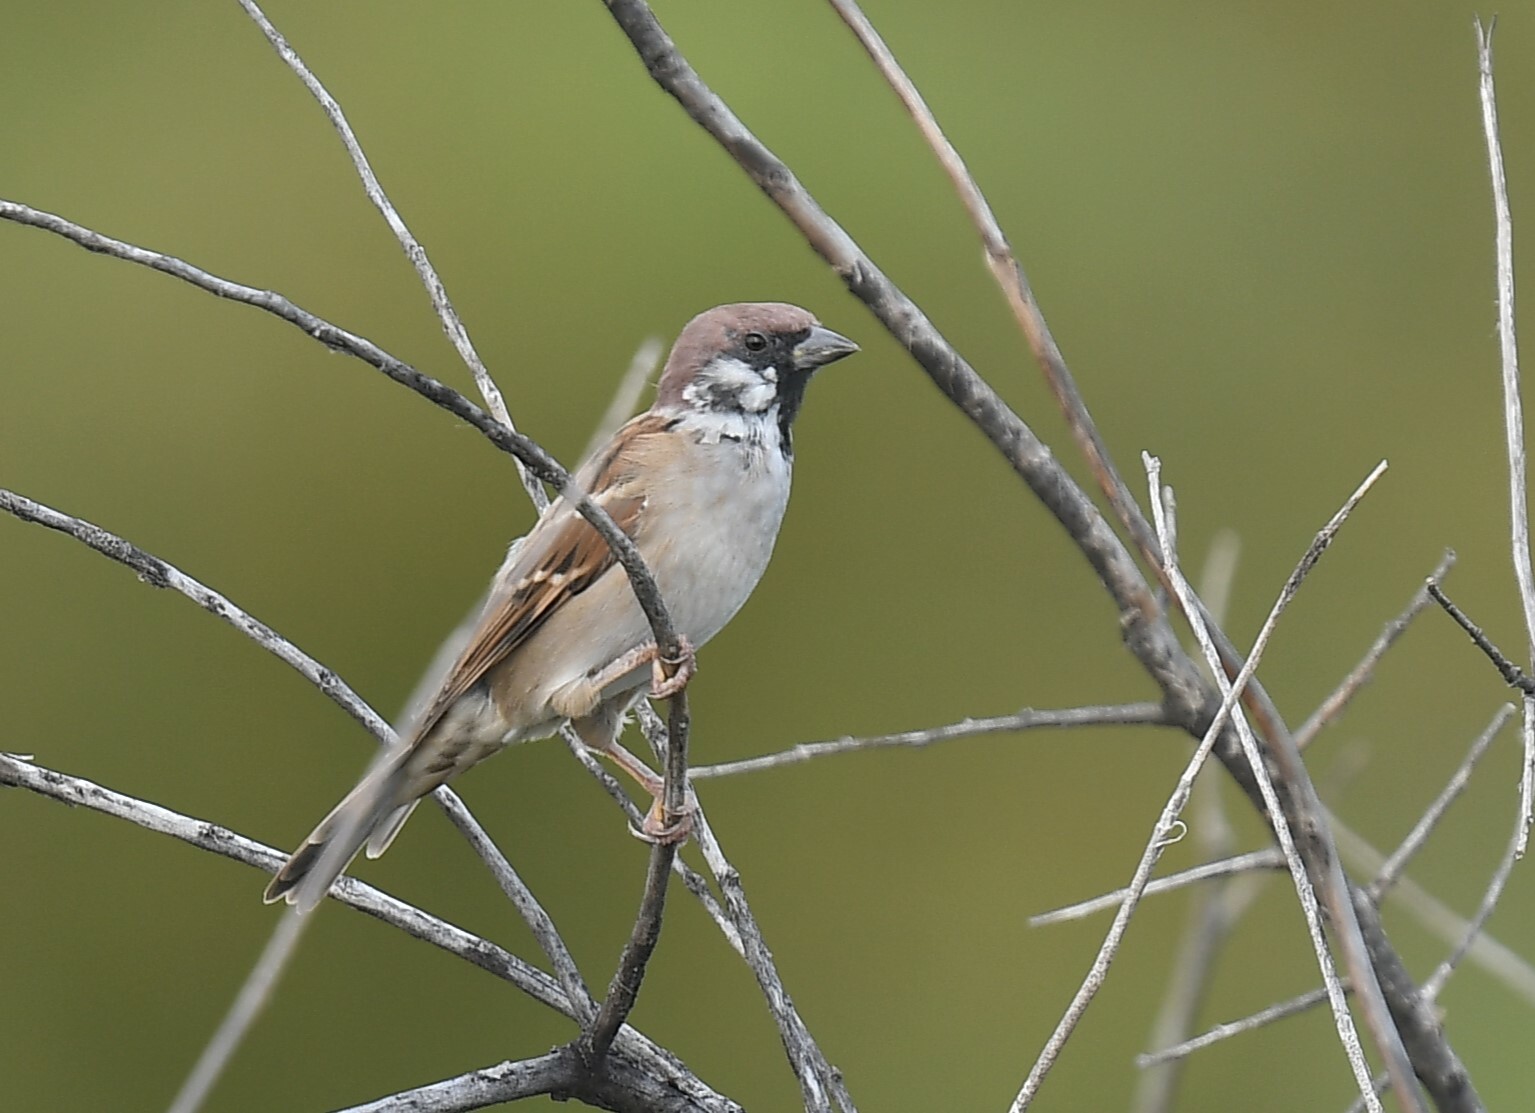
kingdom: Animalia
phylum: Chordata
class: Aves
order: Passeriformes
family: Passeridae
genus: Passer
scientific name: Passer montanus
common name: Eurasian tree sparrow
